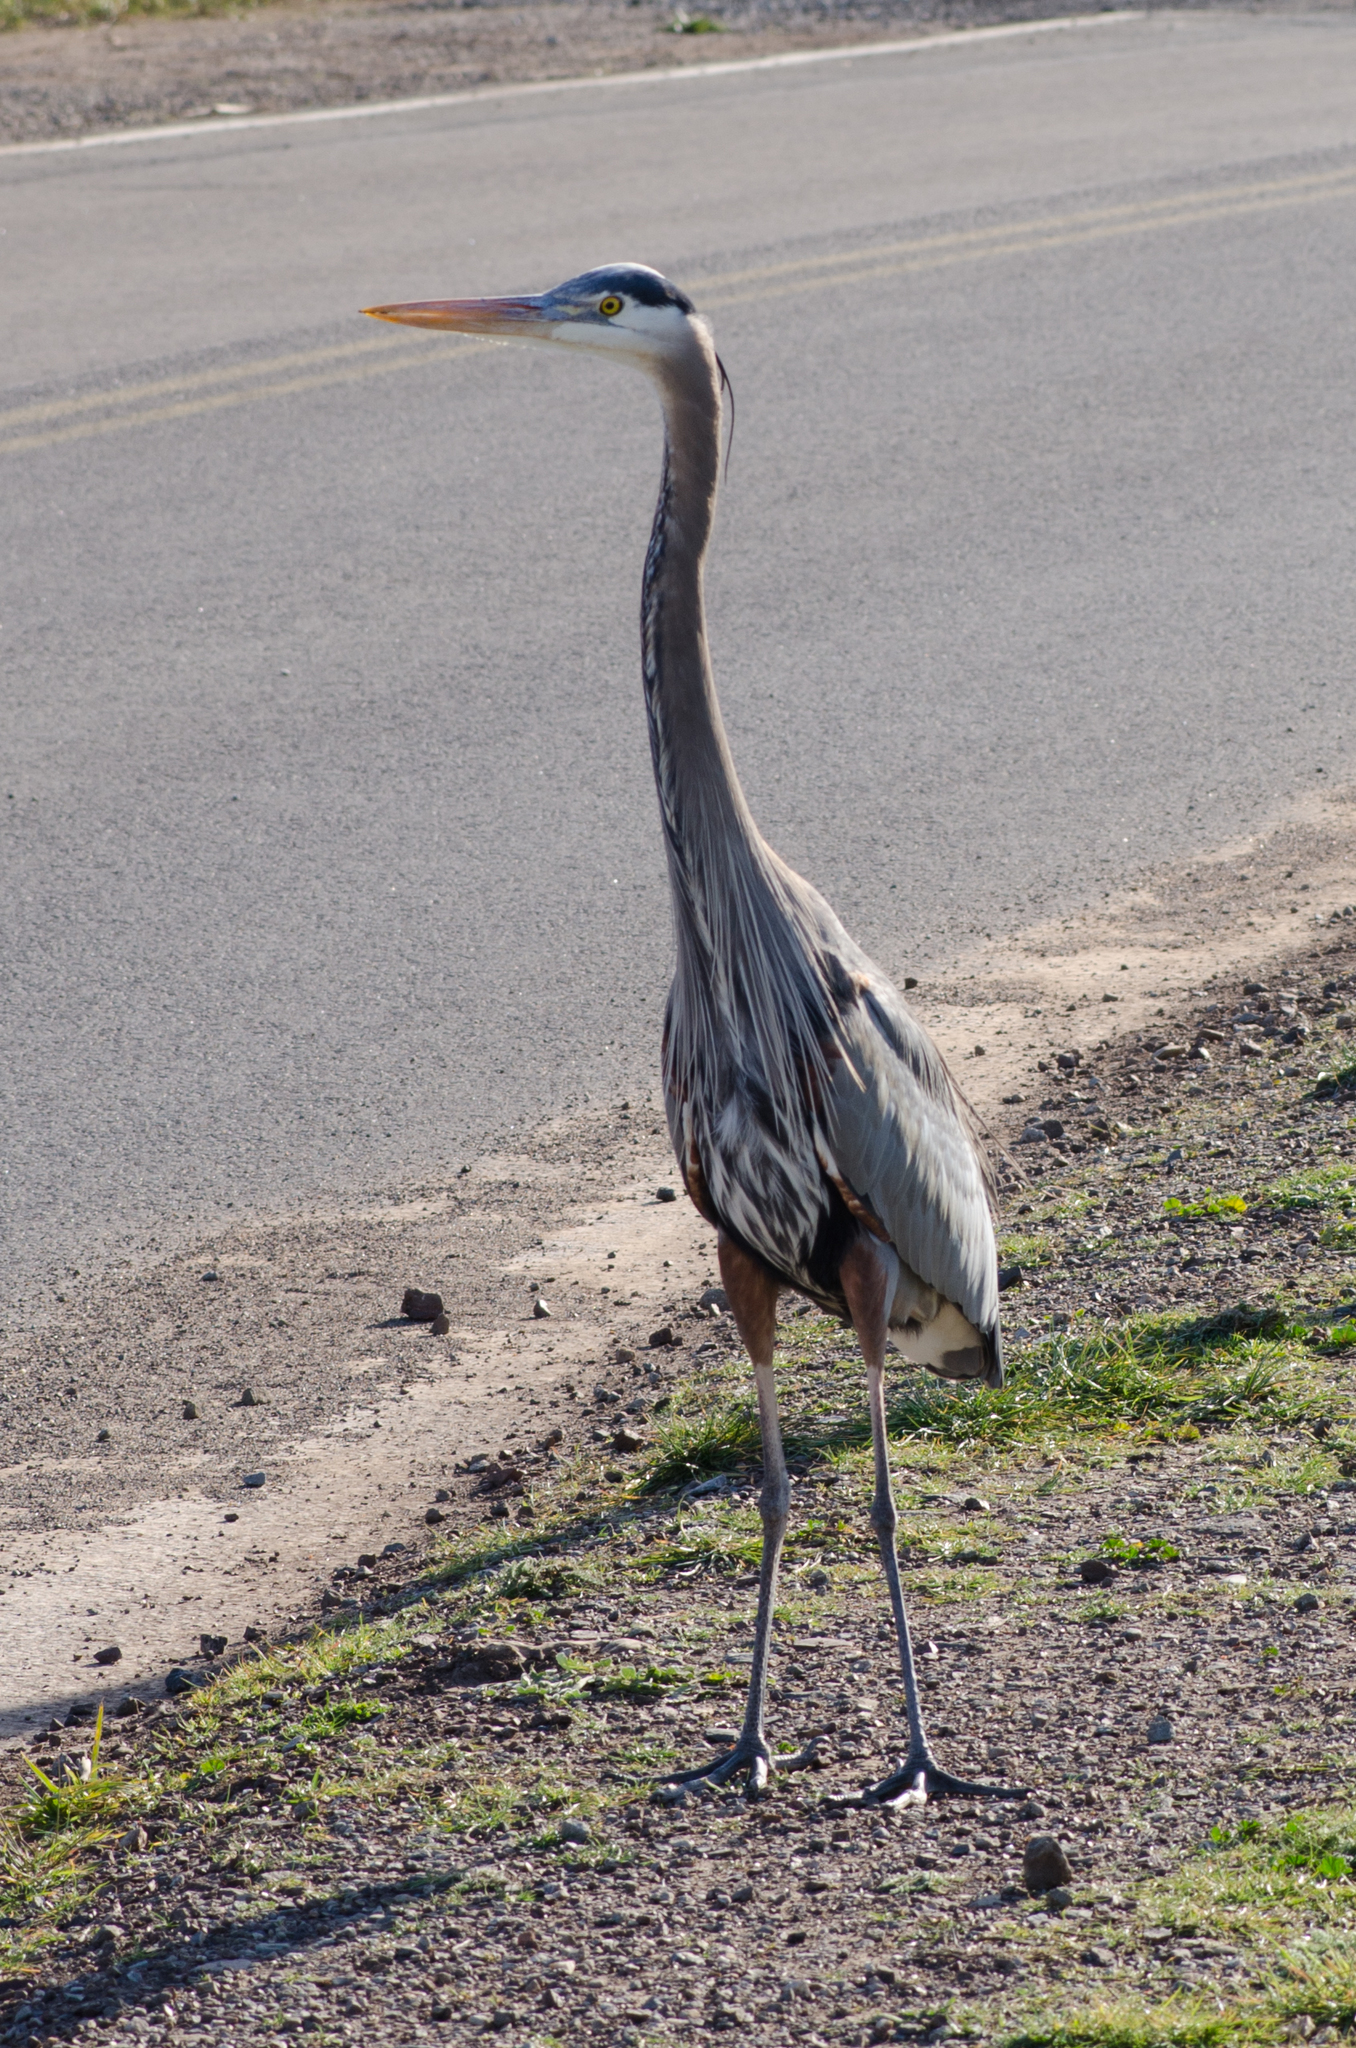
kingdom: Animalia
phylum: Chordata
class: Aves
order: Pelecaniformes
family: Ardeidae
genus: Ardea
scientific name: Ardea herodias
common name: Great blue heron
